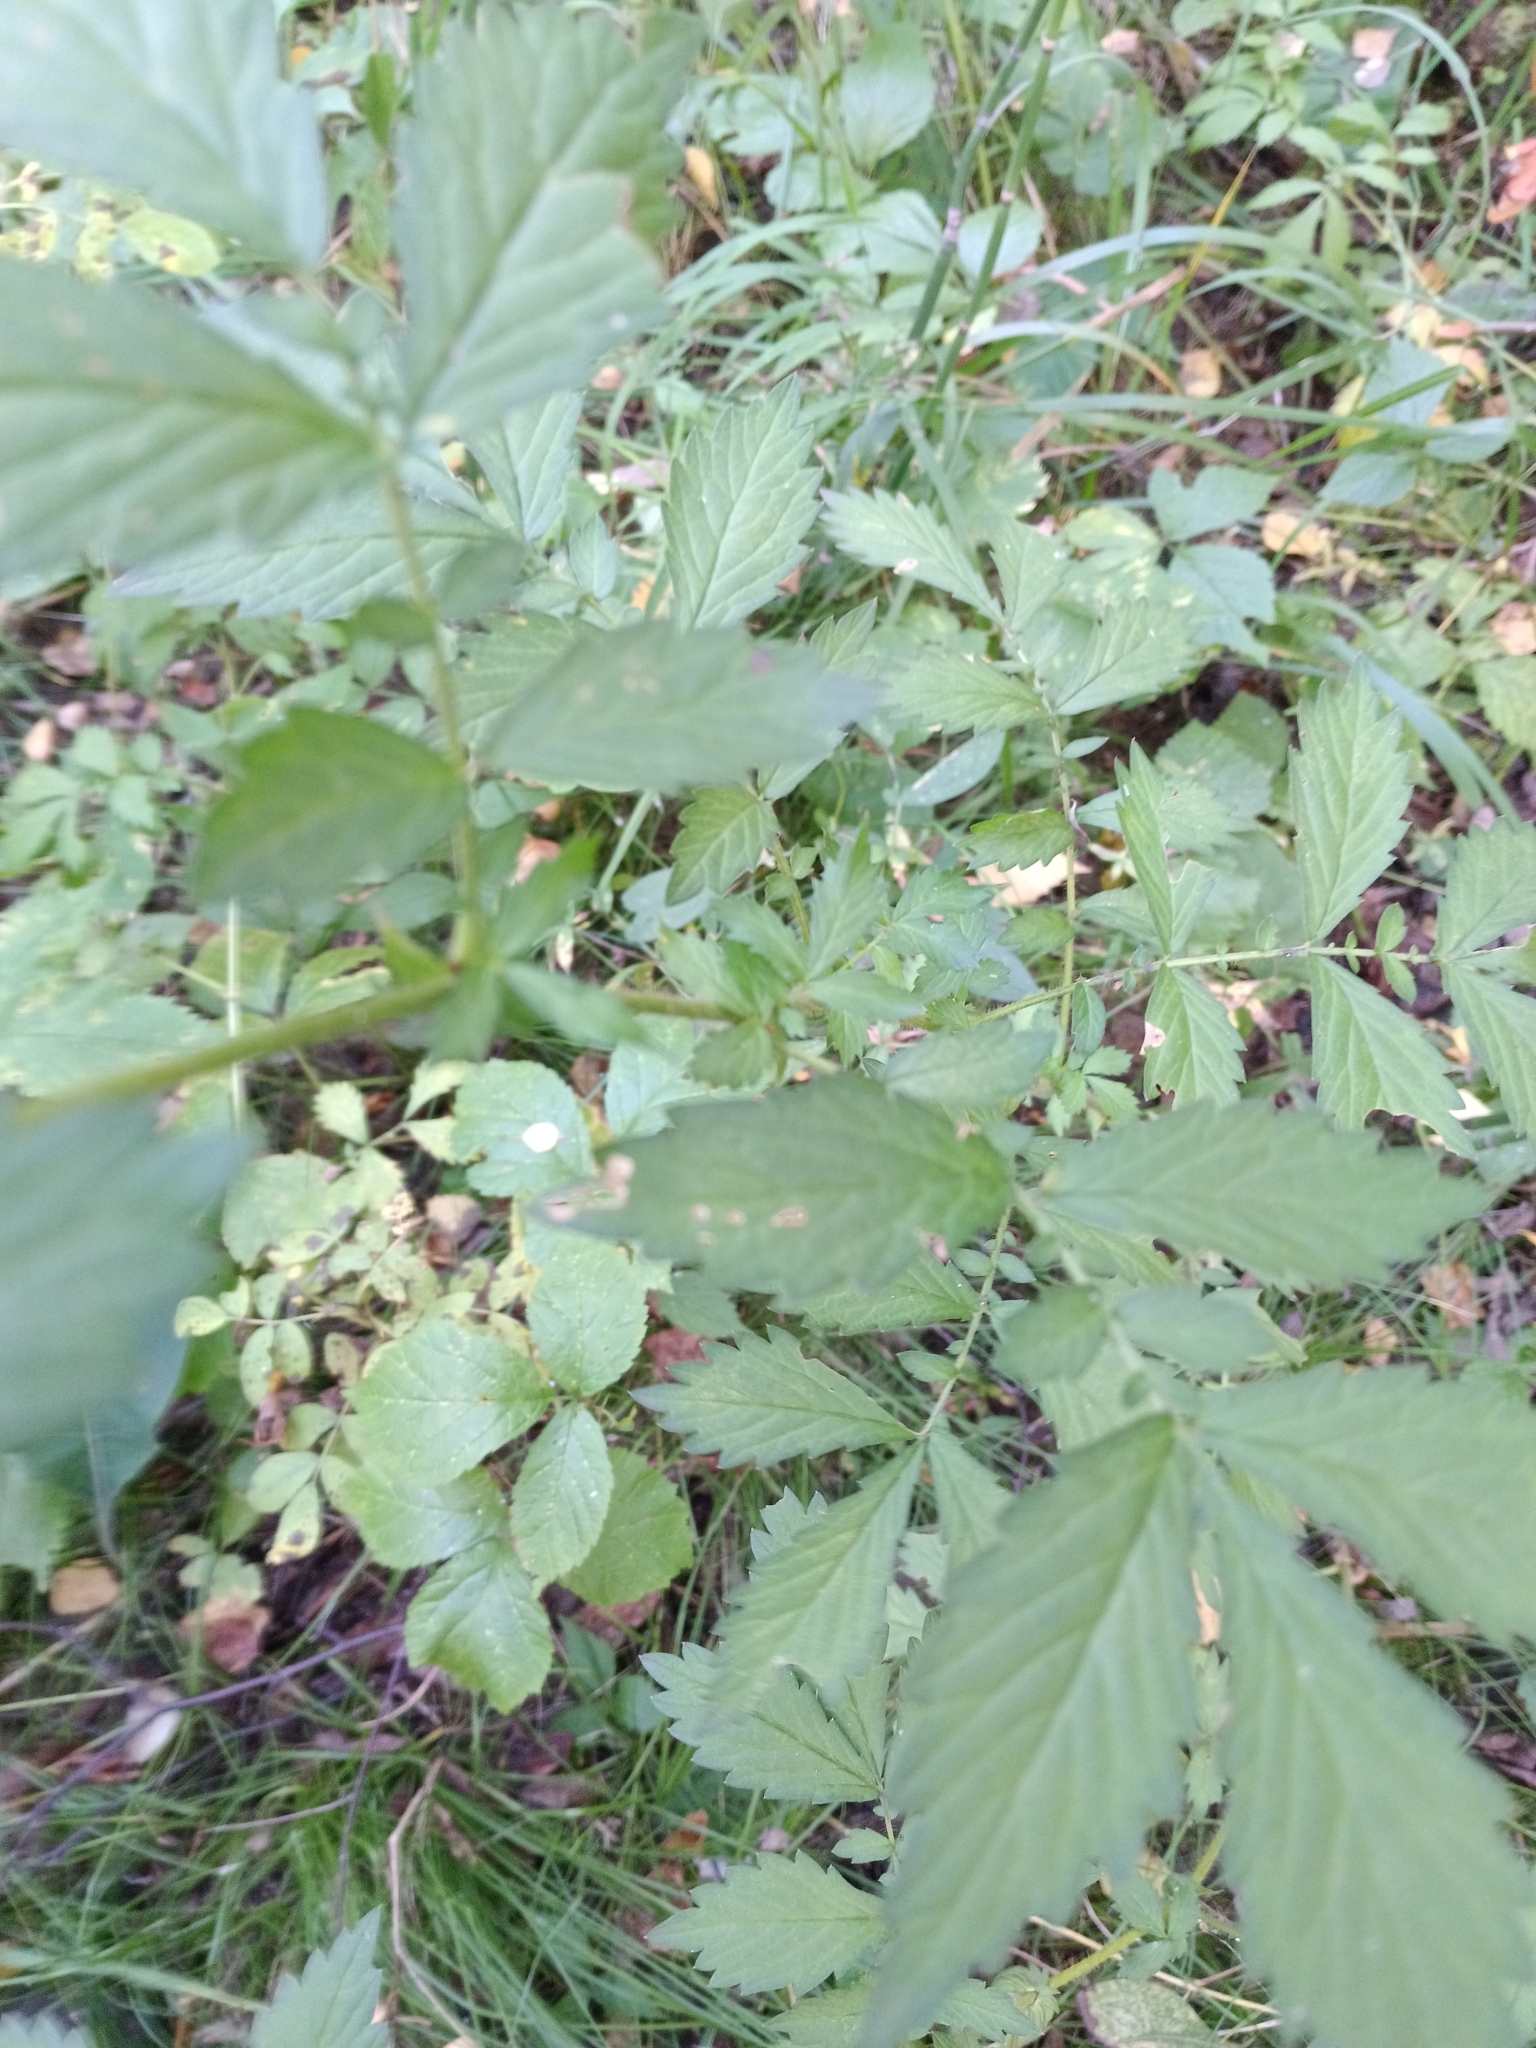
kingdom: Plantae
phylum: Tracheophyta
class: Magnoliopsida
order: Rosales
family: Rosaceae
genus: Agrimonia
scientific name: Agrimonia pilosa
